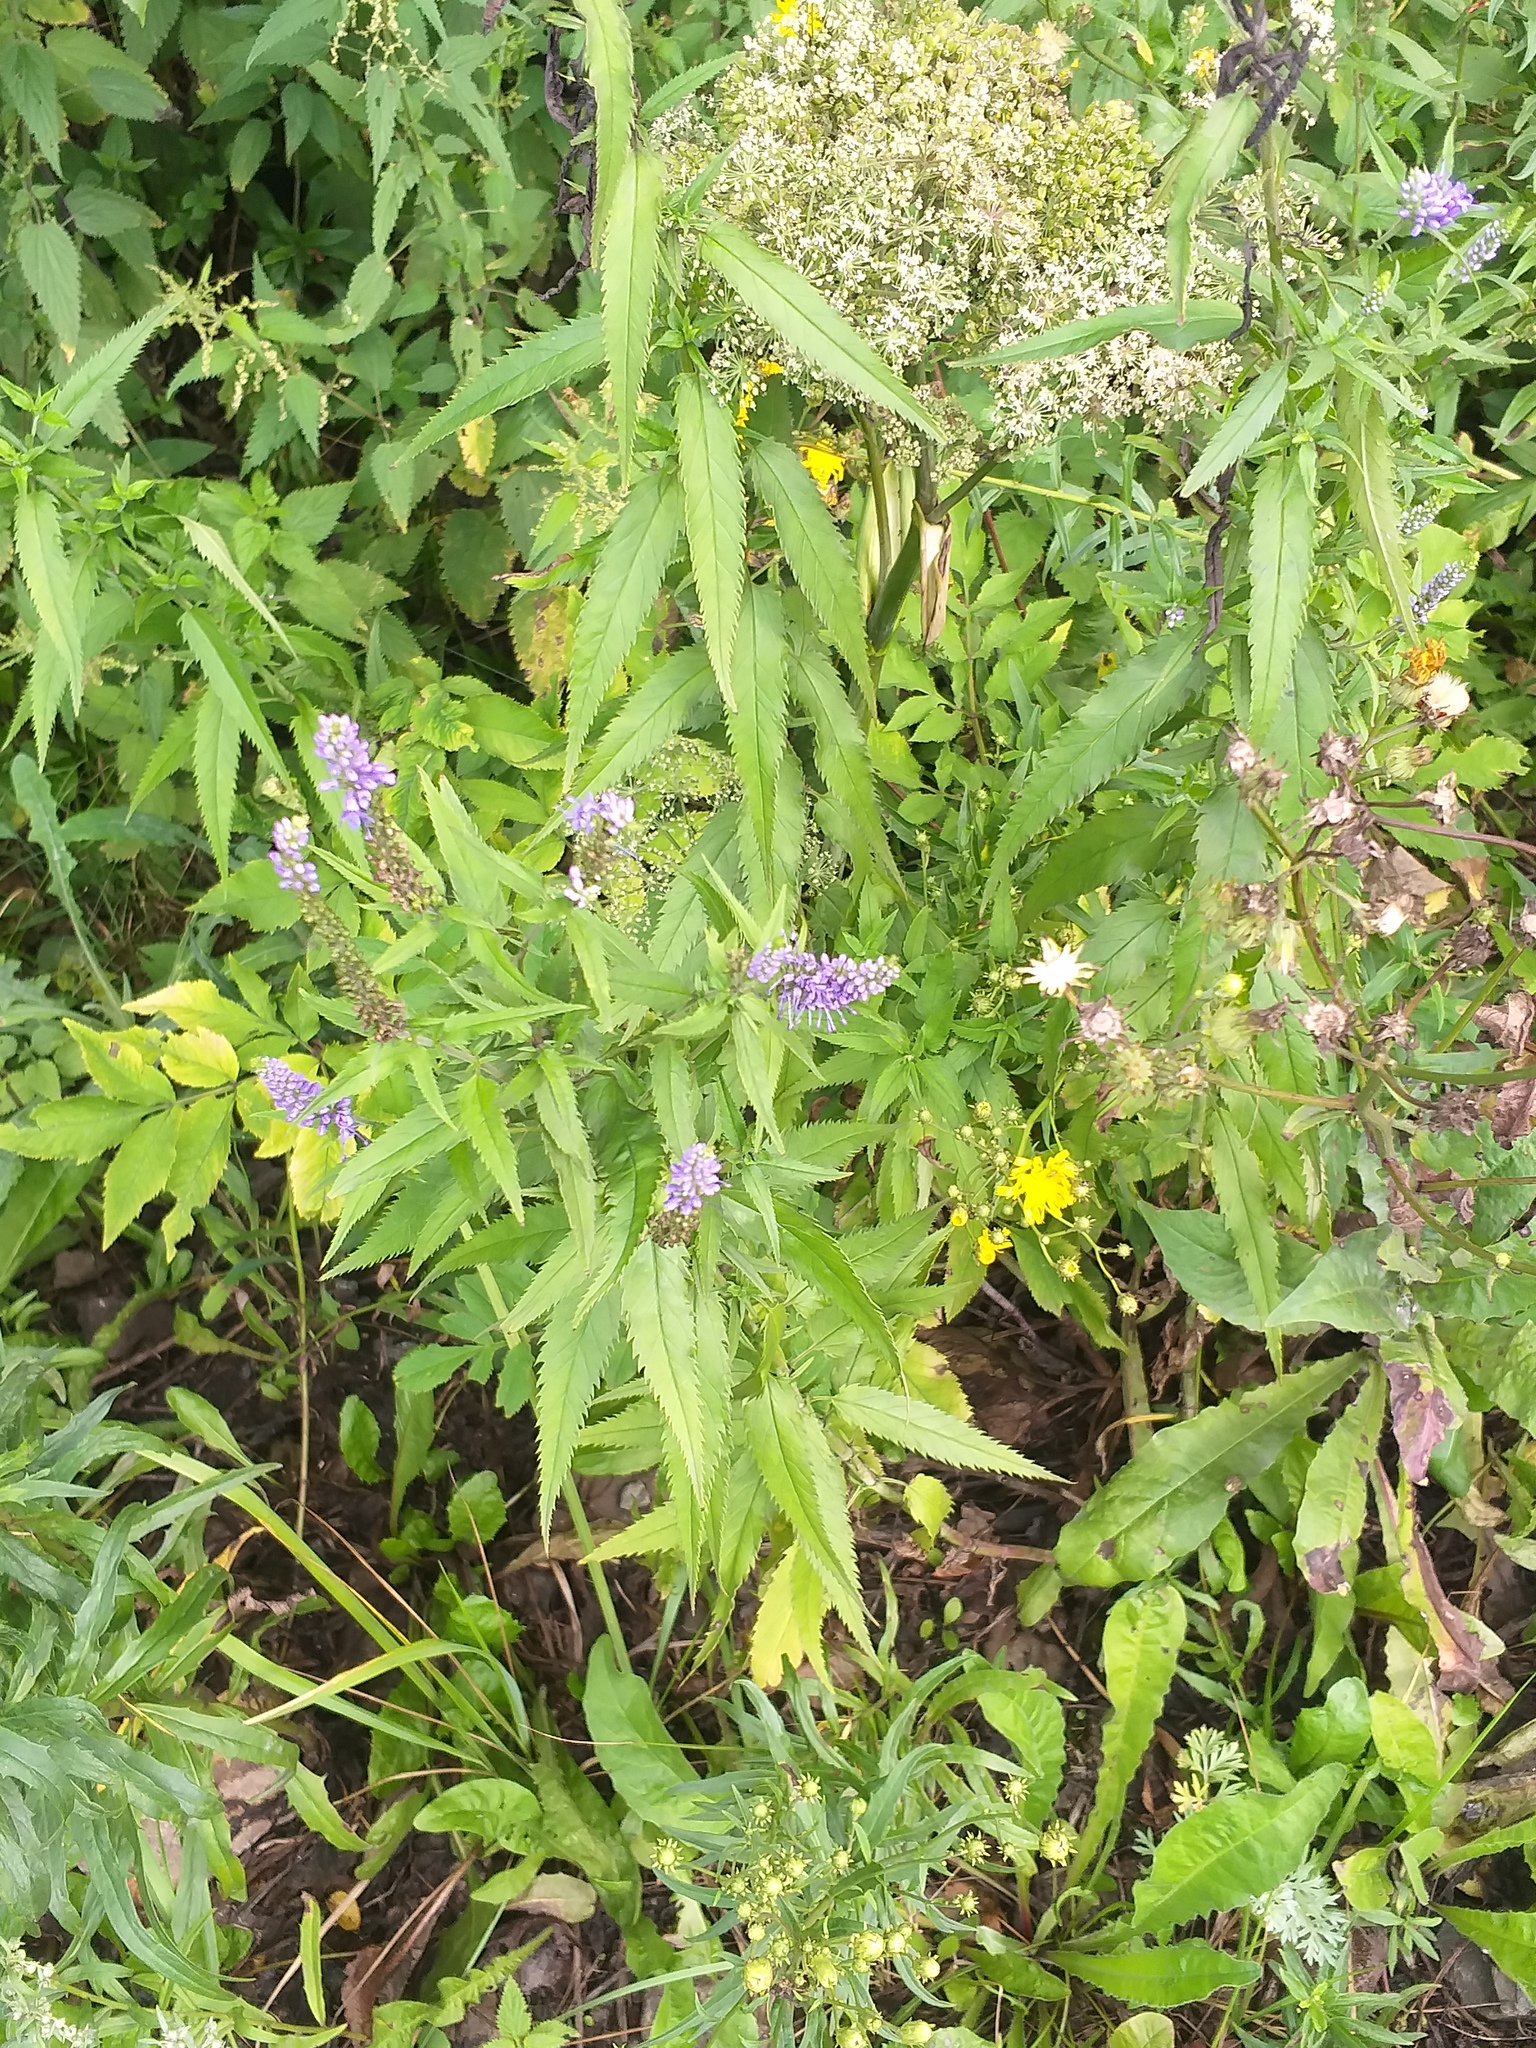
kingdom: Plantae
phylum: Tracheophyta
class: Magnoliopsida
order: Lamiales
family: Plantaginaceae
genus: Veronica
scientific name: Veronica longifolia
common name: Garden speedwell
